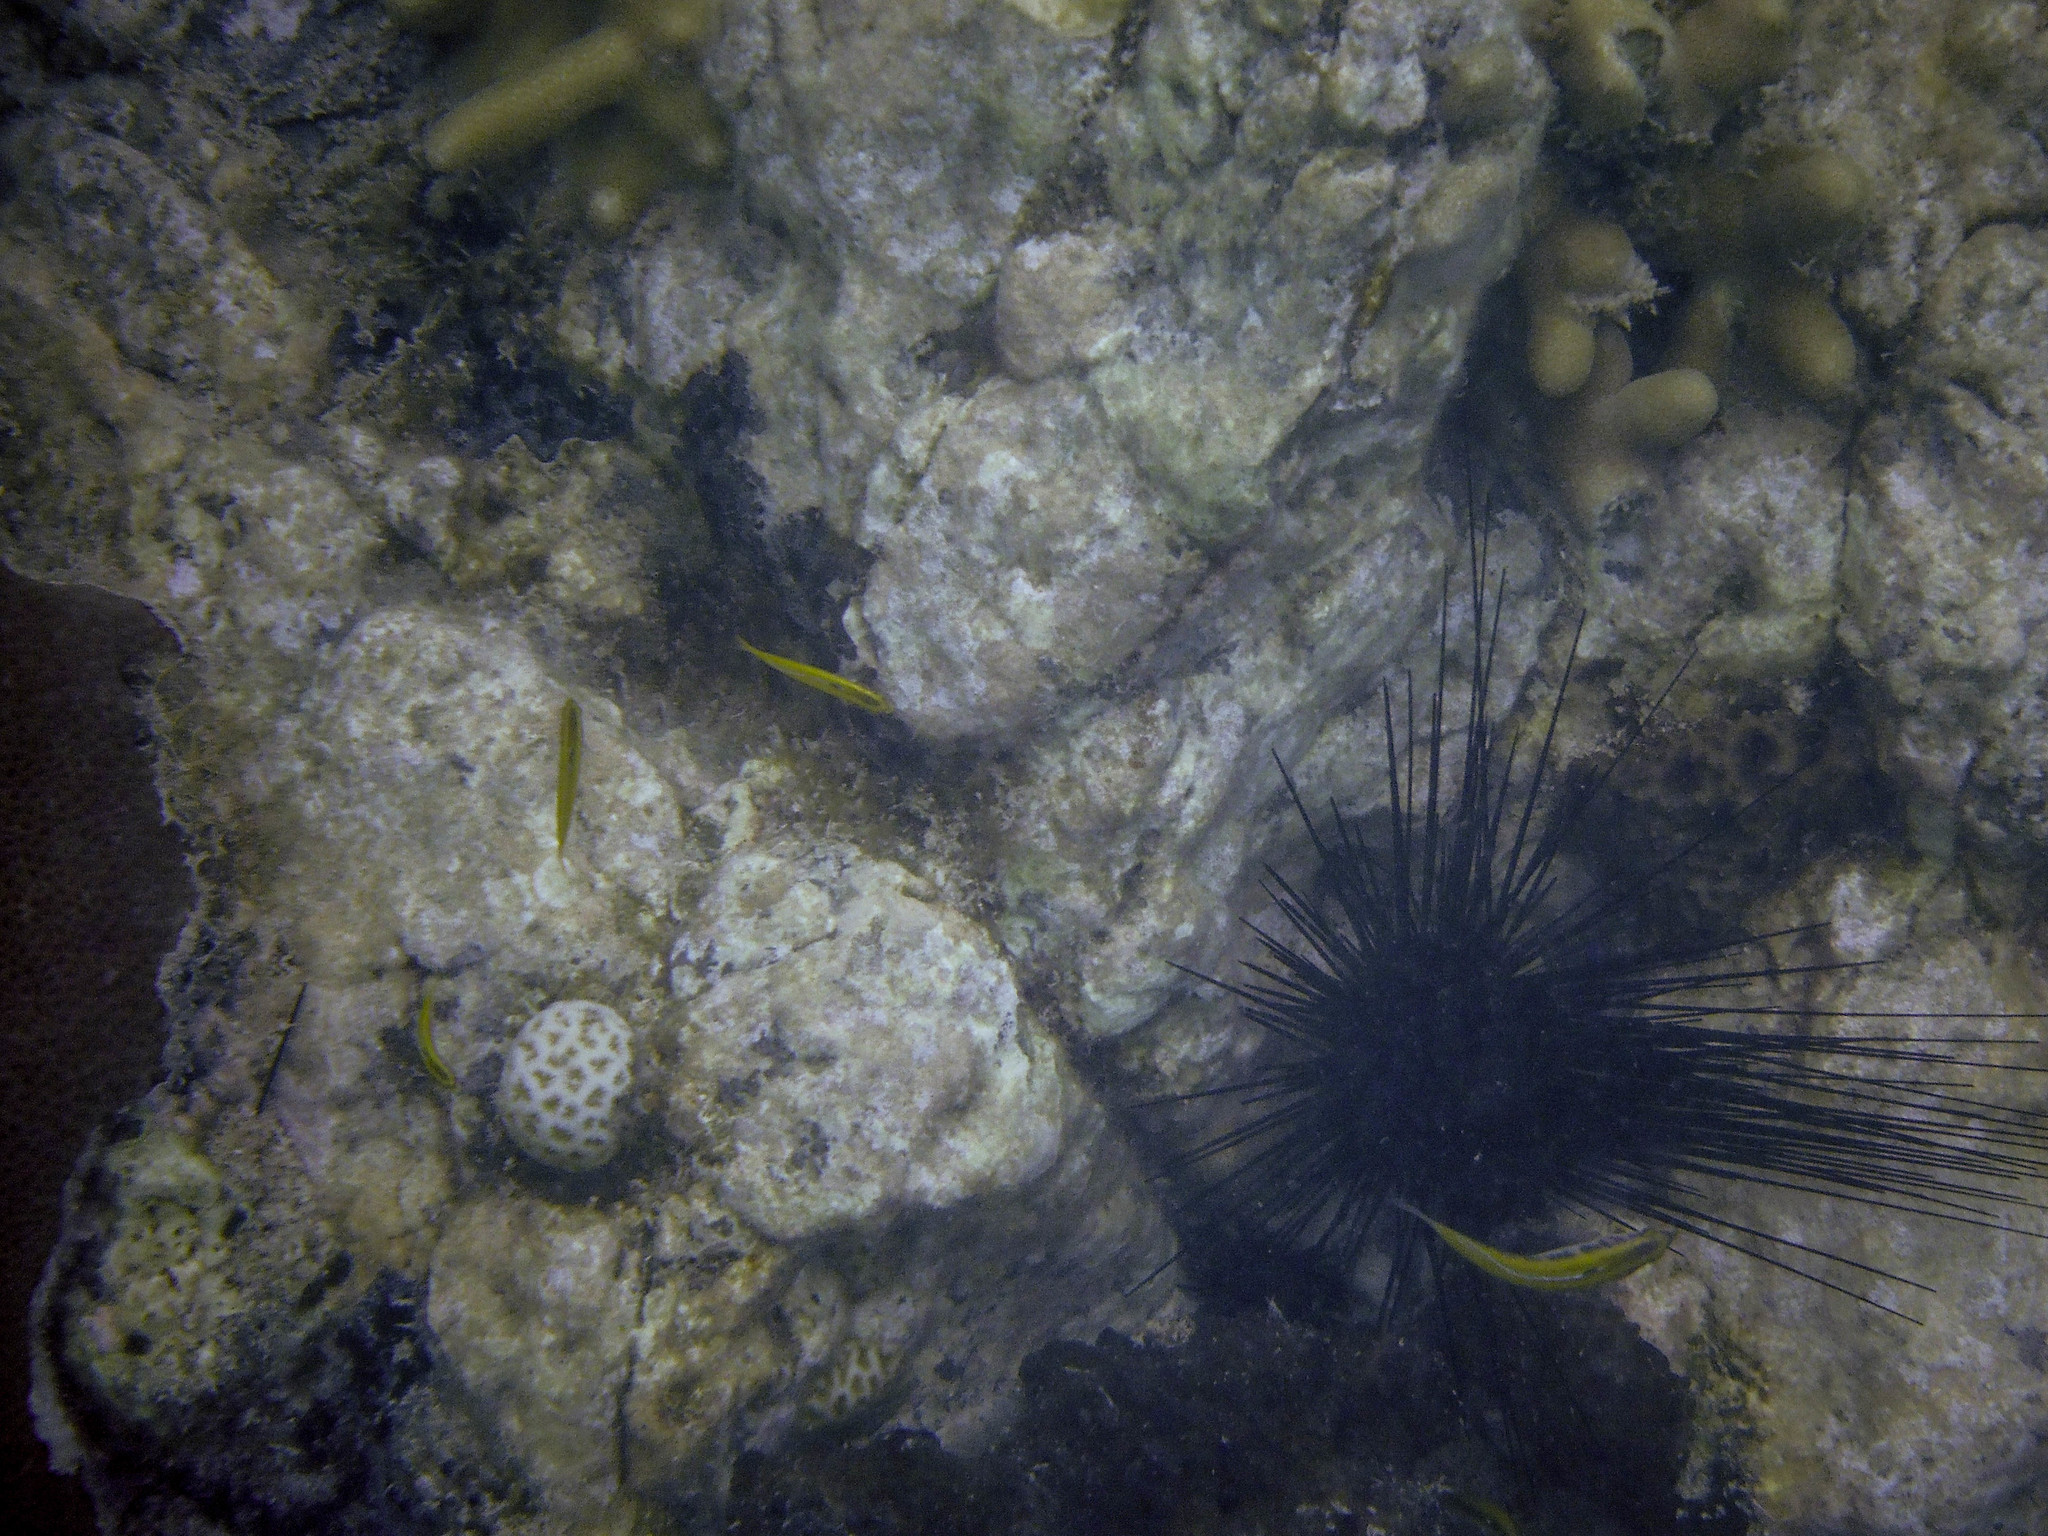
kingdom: Animalia
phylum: Cnidaria
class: Anthozoa
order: Scleractinia
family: Faviidae
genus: Favia
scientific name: Favia fragum
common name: Golfball coral
